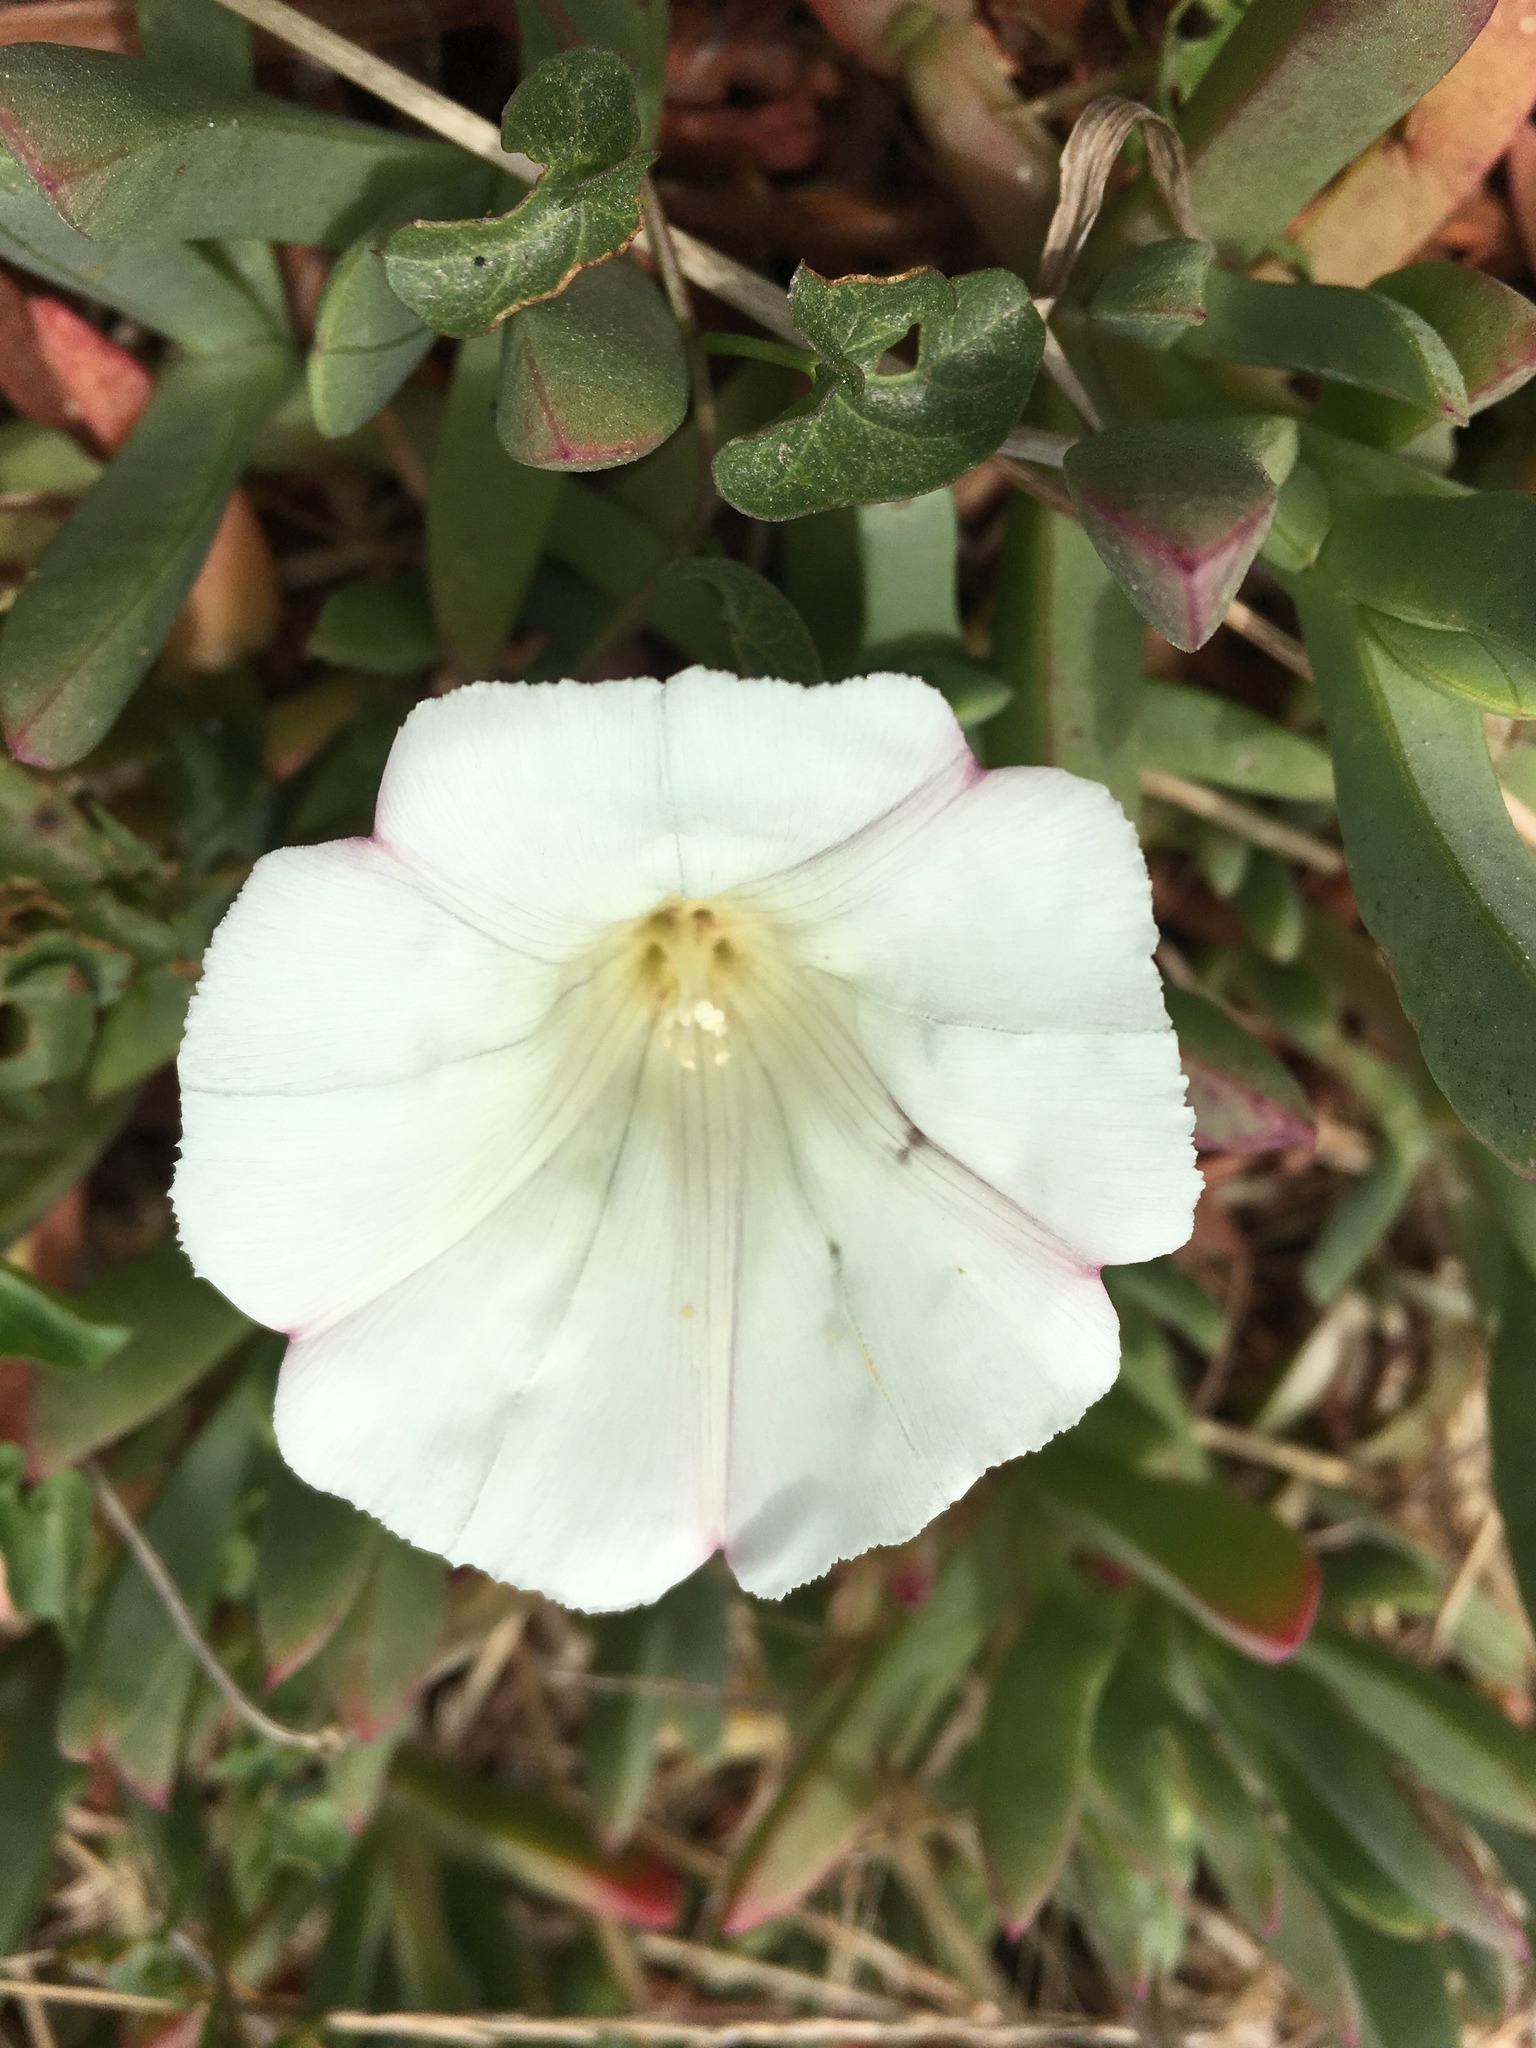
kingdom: Plantae
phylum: Tracheophyta
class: Magnoliopsida
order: Solanales
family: Convolvulaceae
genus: Calystegia
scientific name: Calystegia purpurata
